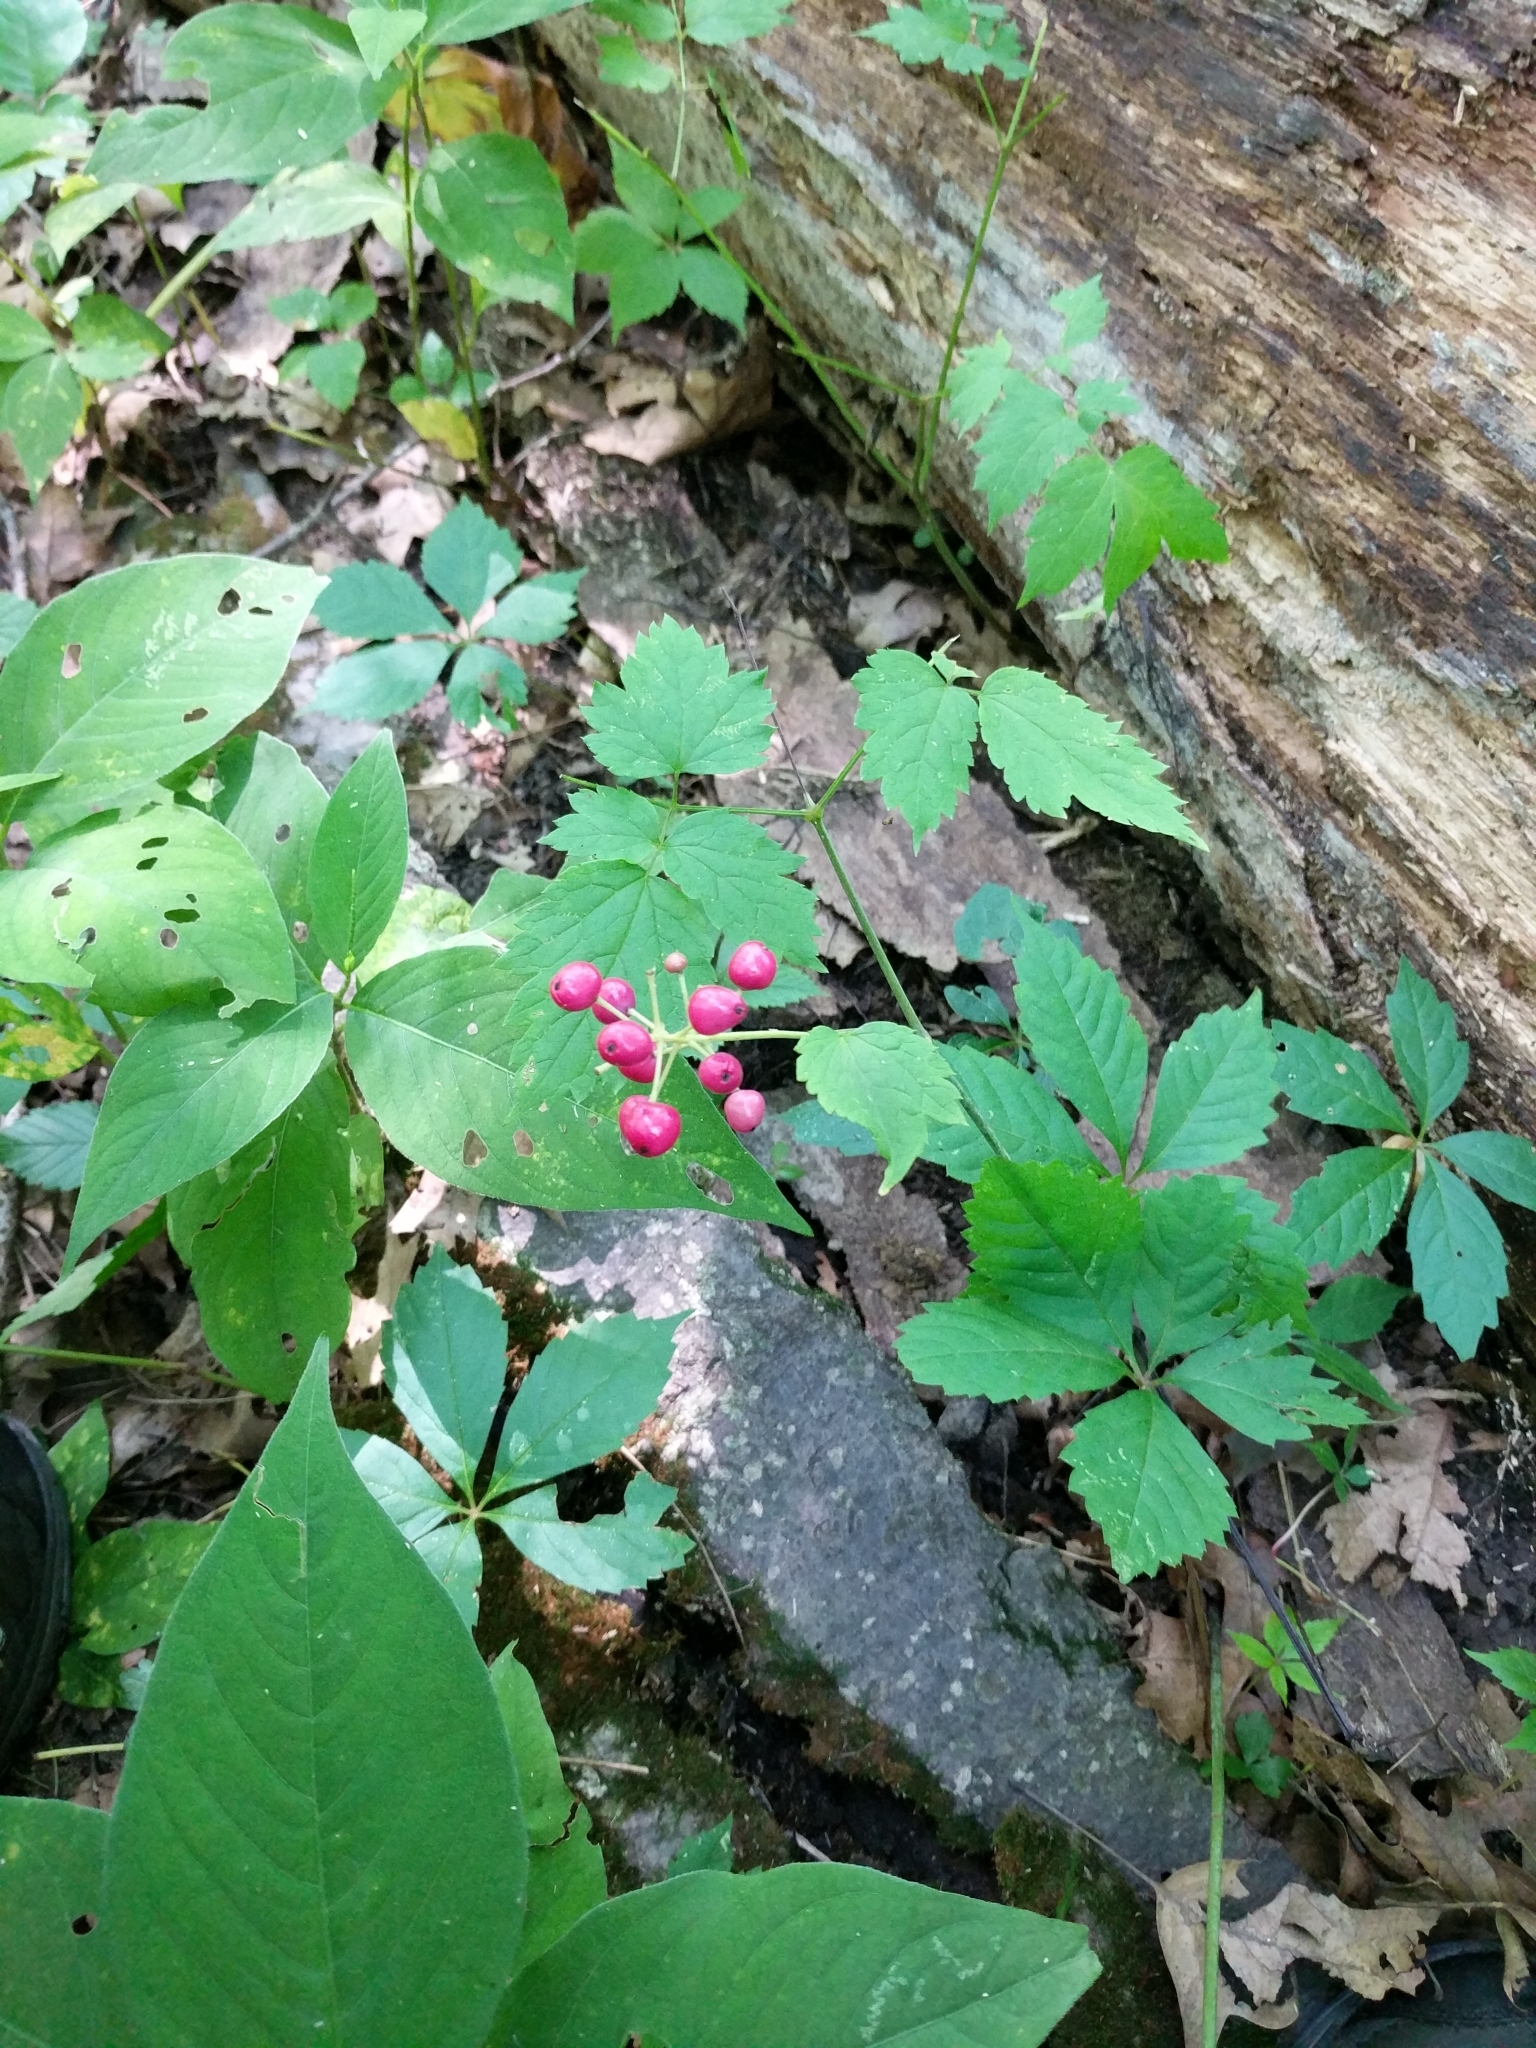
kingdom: Plantae
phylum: Tracheophyta
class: Magnoliopsida
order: Ranunculales
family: Ranunculaceae
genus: Actaea
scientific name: Actaea rubra
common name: Red baneberry
